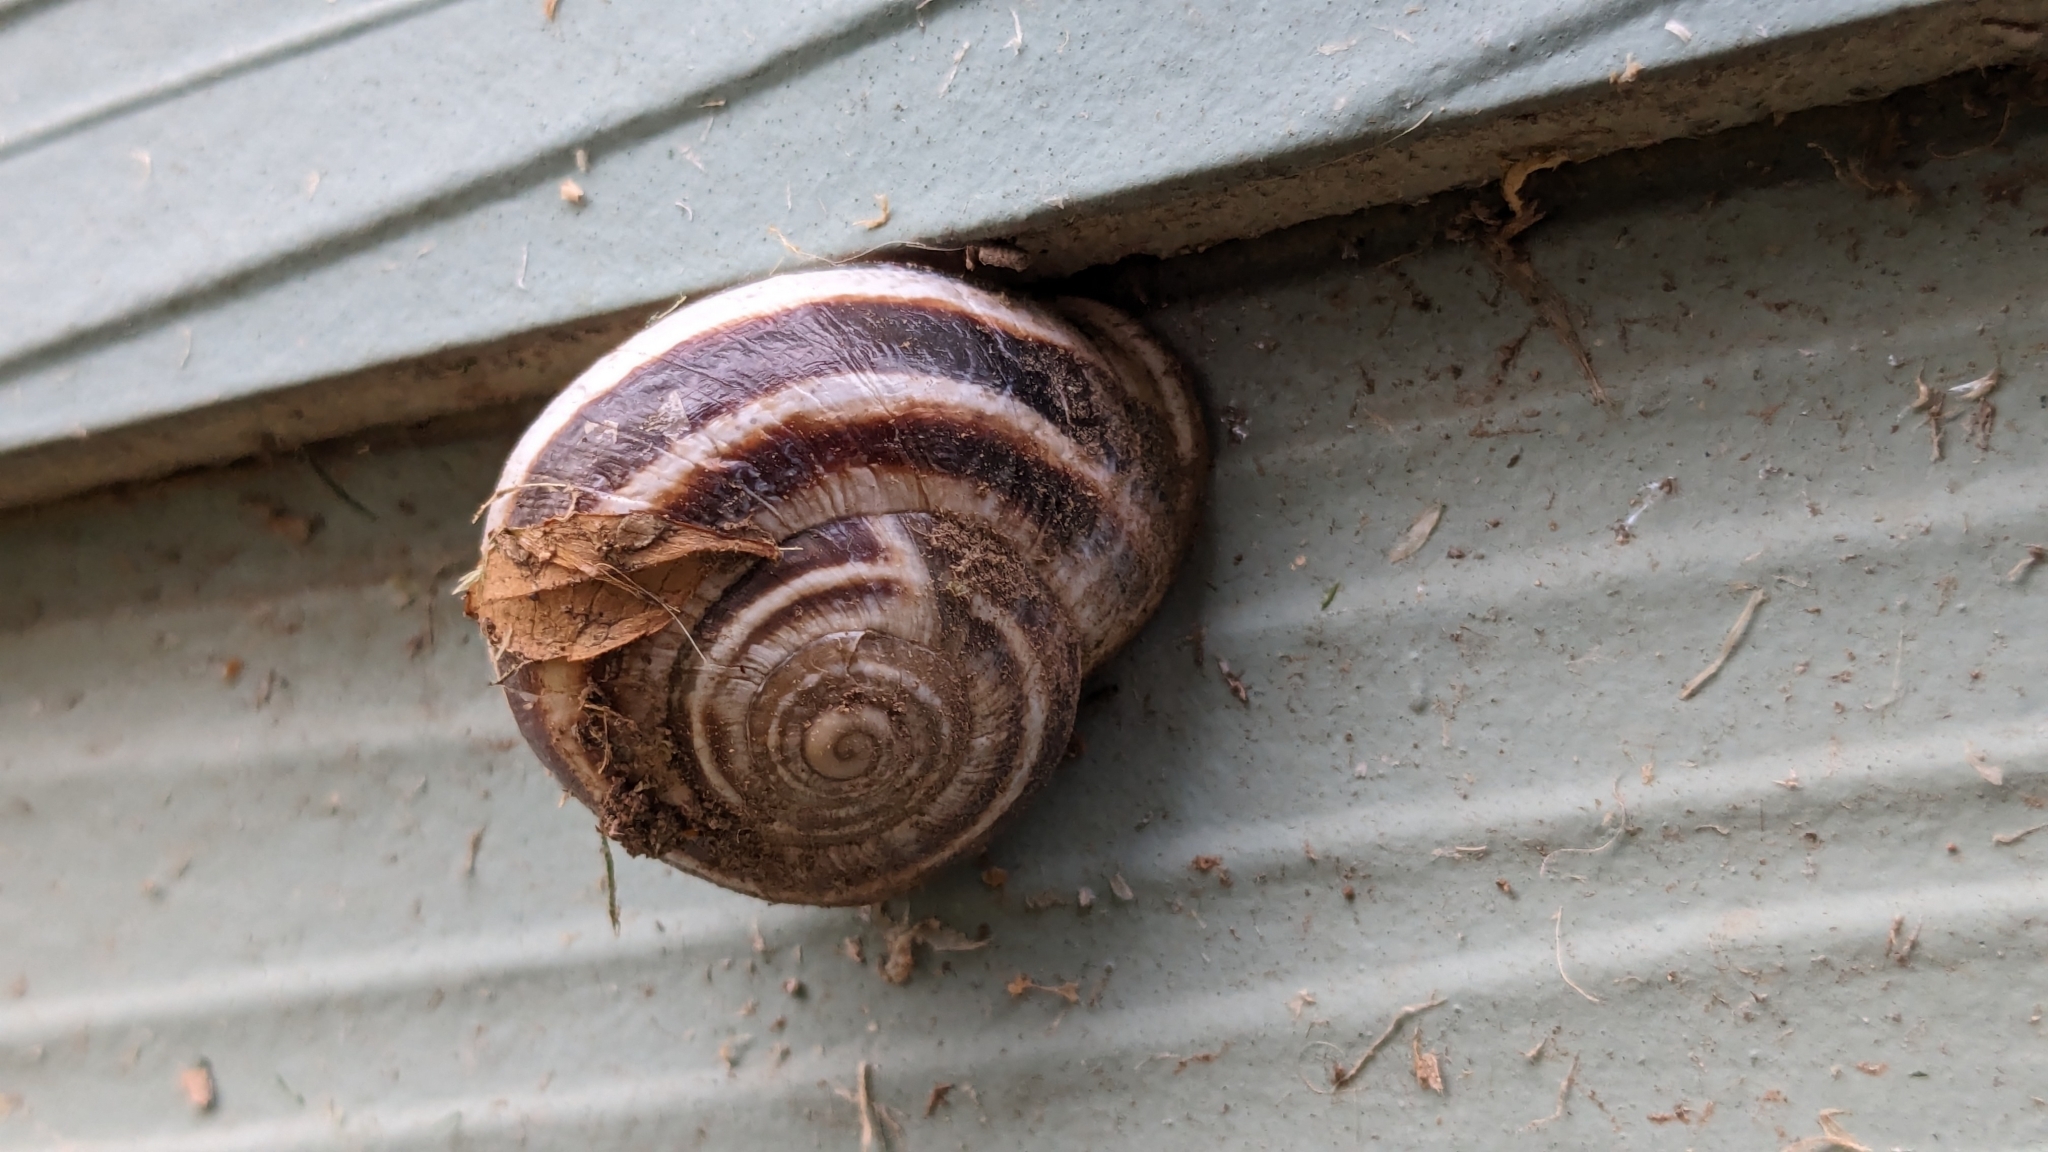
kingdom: Animalia
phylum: Mollusca
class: Gastropoda
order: Stylommatophora
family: Helicidae
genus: Otala
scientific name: Otala lactea
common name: Milk snail
